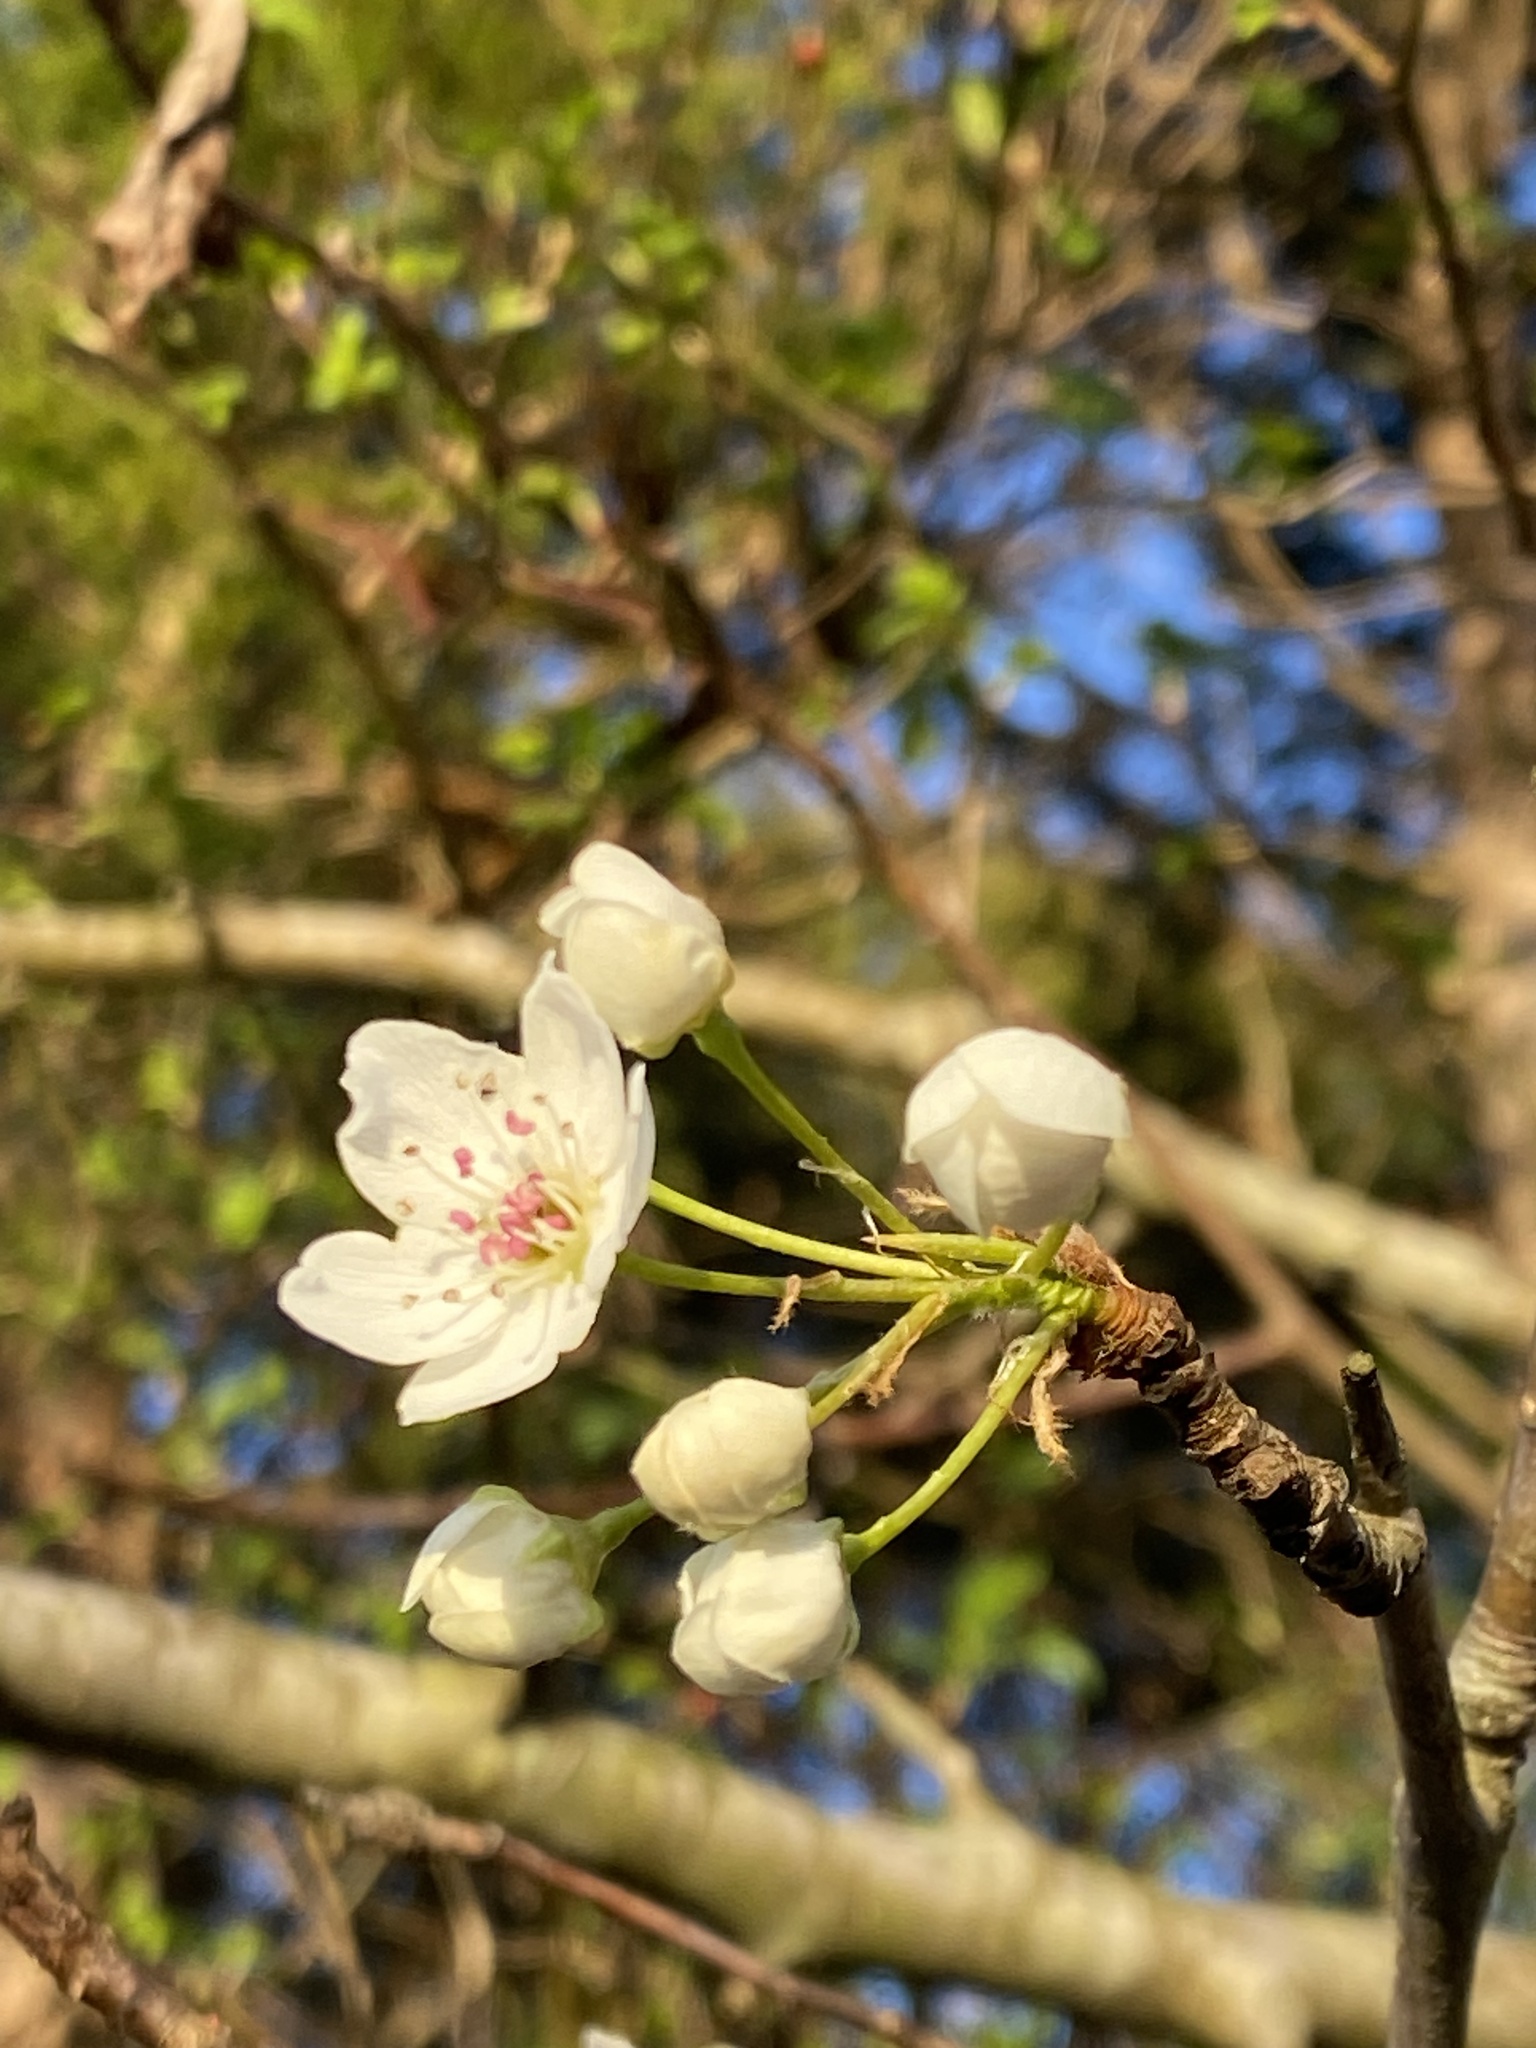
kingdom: Plantae
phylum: Tracheophyta
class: Magnoliopsida
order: Rosales
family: Rosaceae
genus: Pyrus
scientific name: Pyrus calleryana
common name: Callery pear
